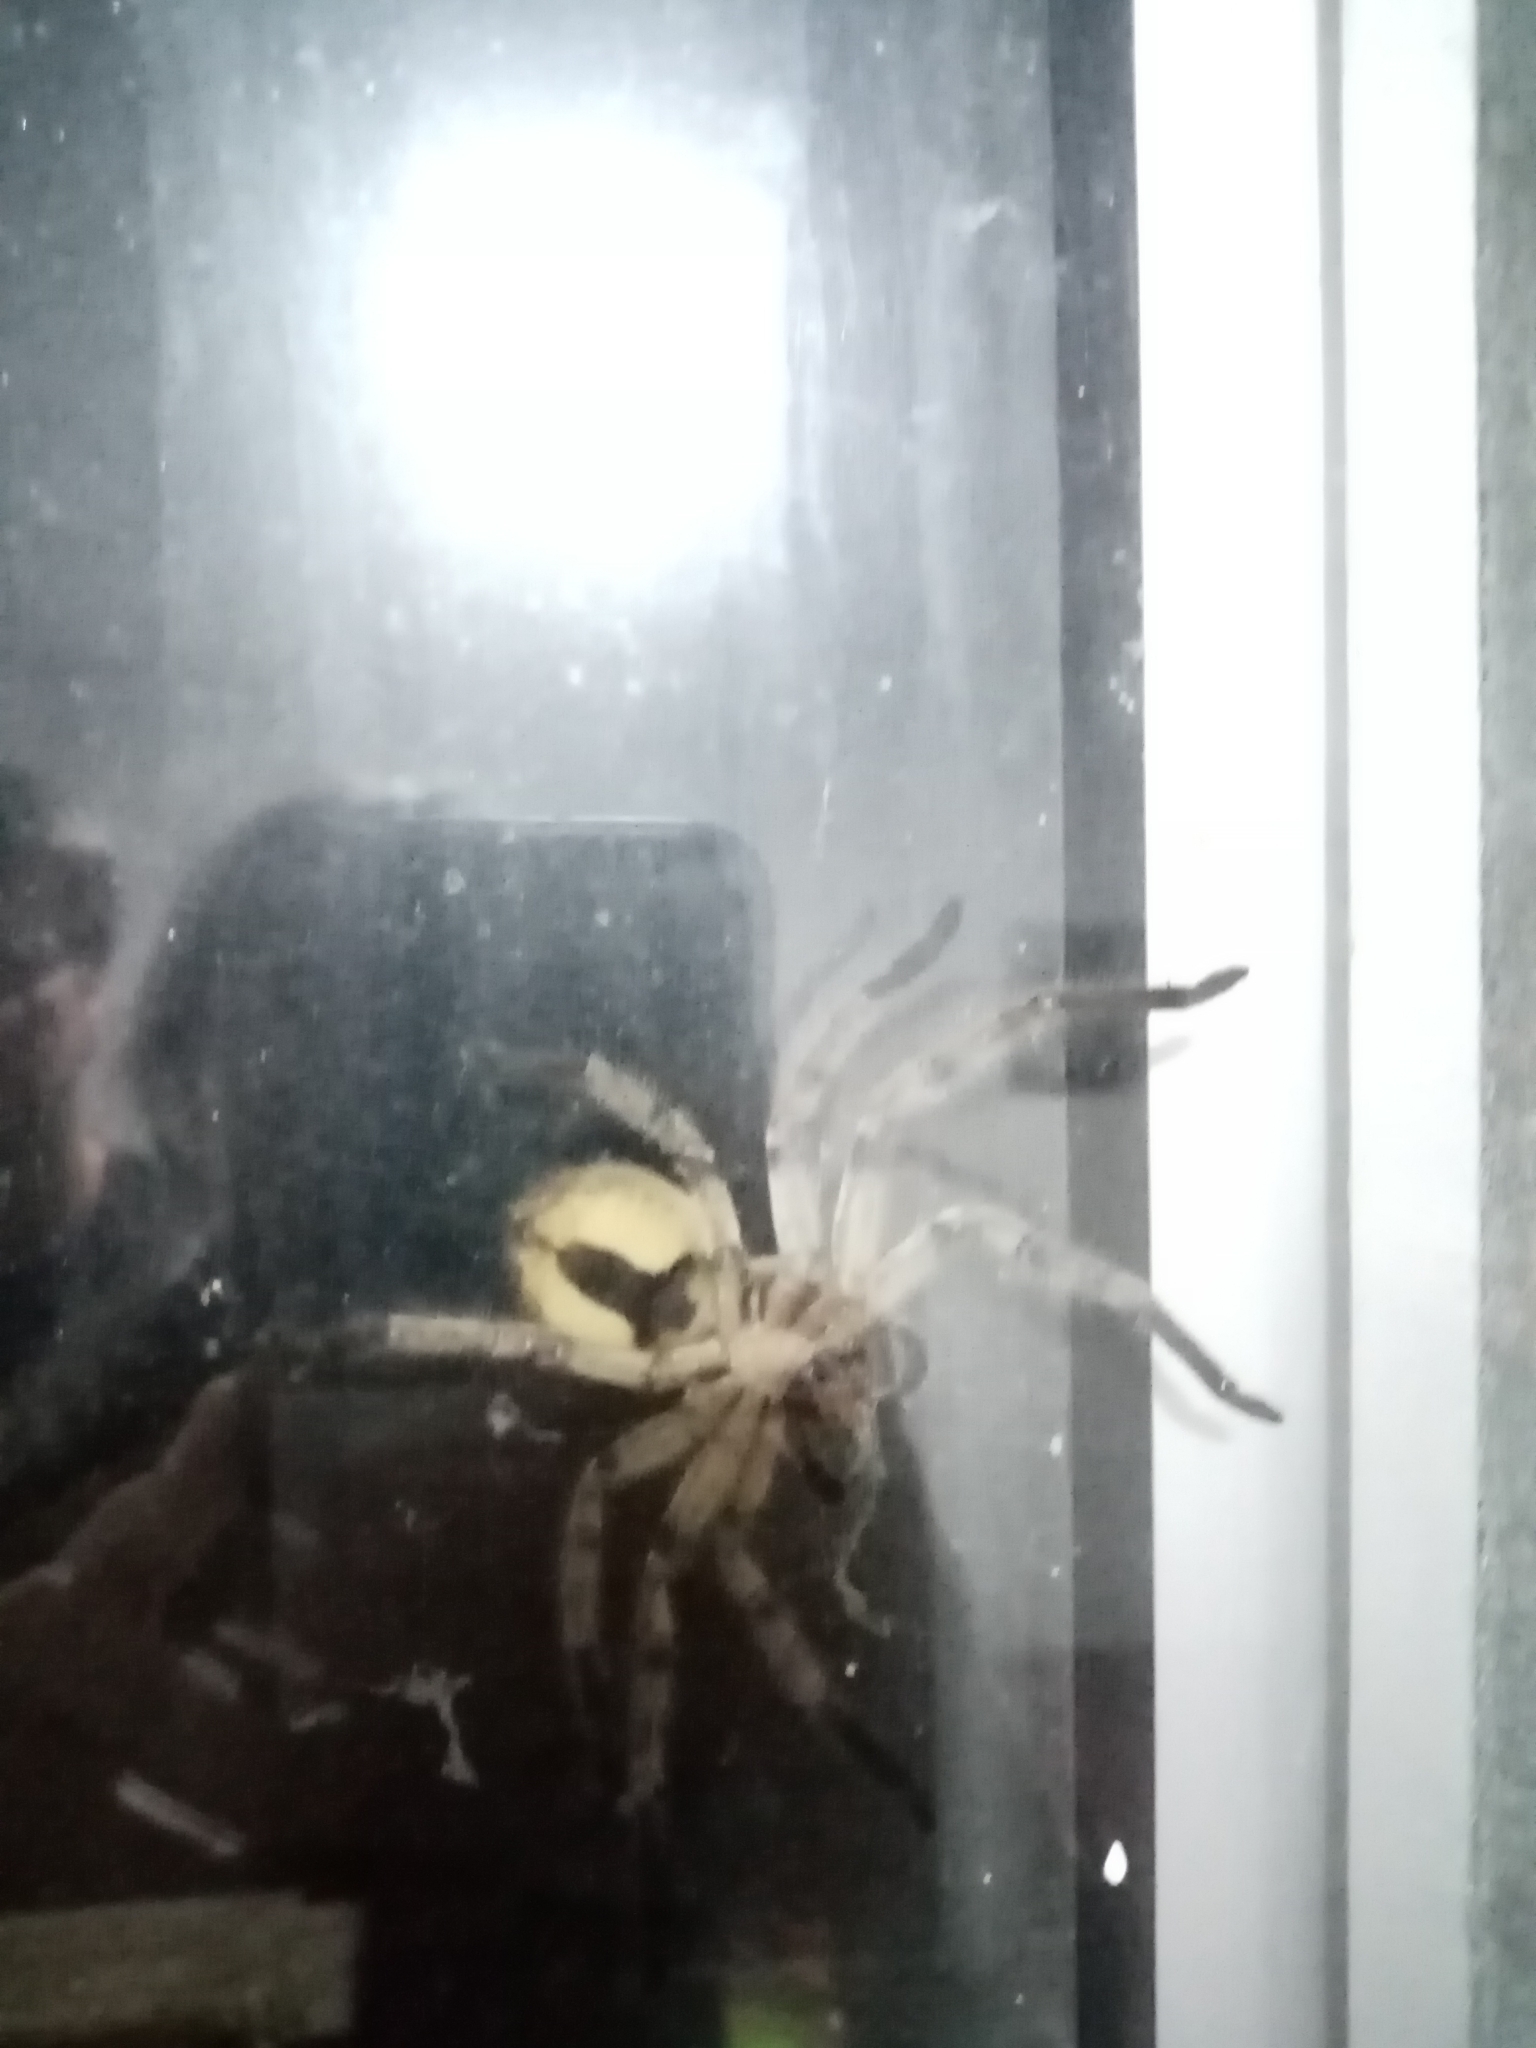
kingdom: Animalia
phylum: Arthropoda
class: Arachnida
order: Araneae
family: Sparassidae
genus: Polybetes
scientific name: Polybetes pythagoricus
